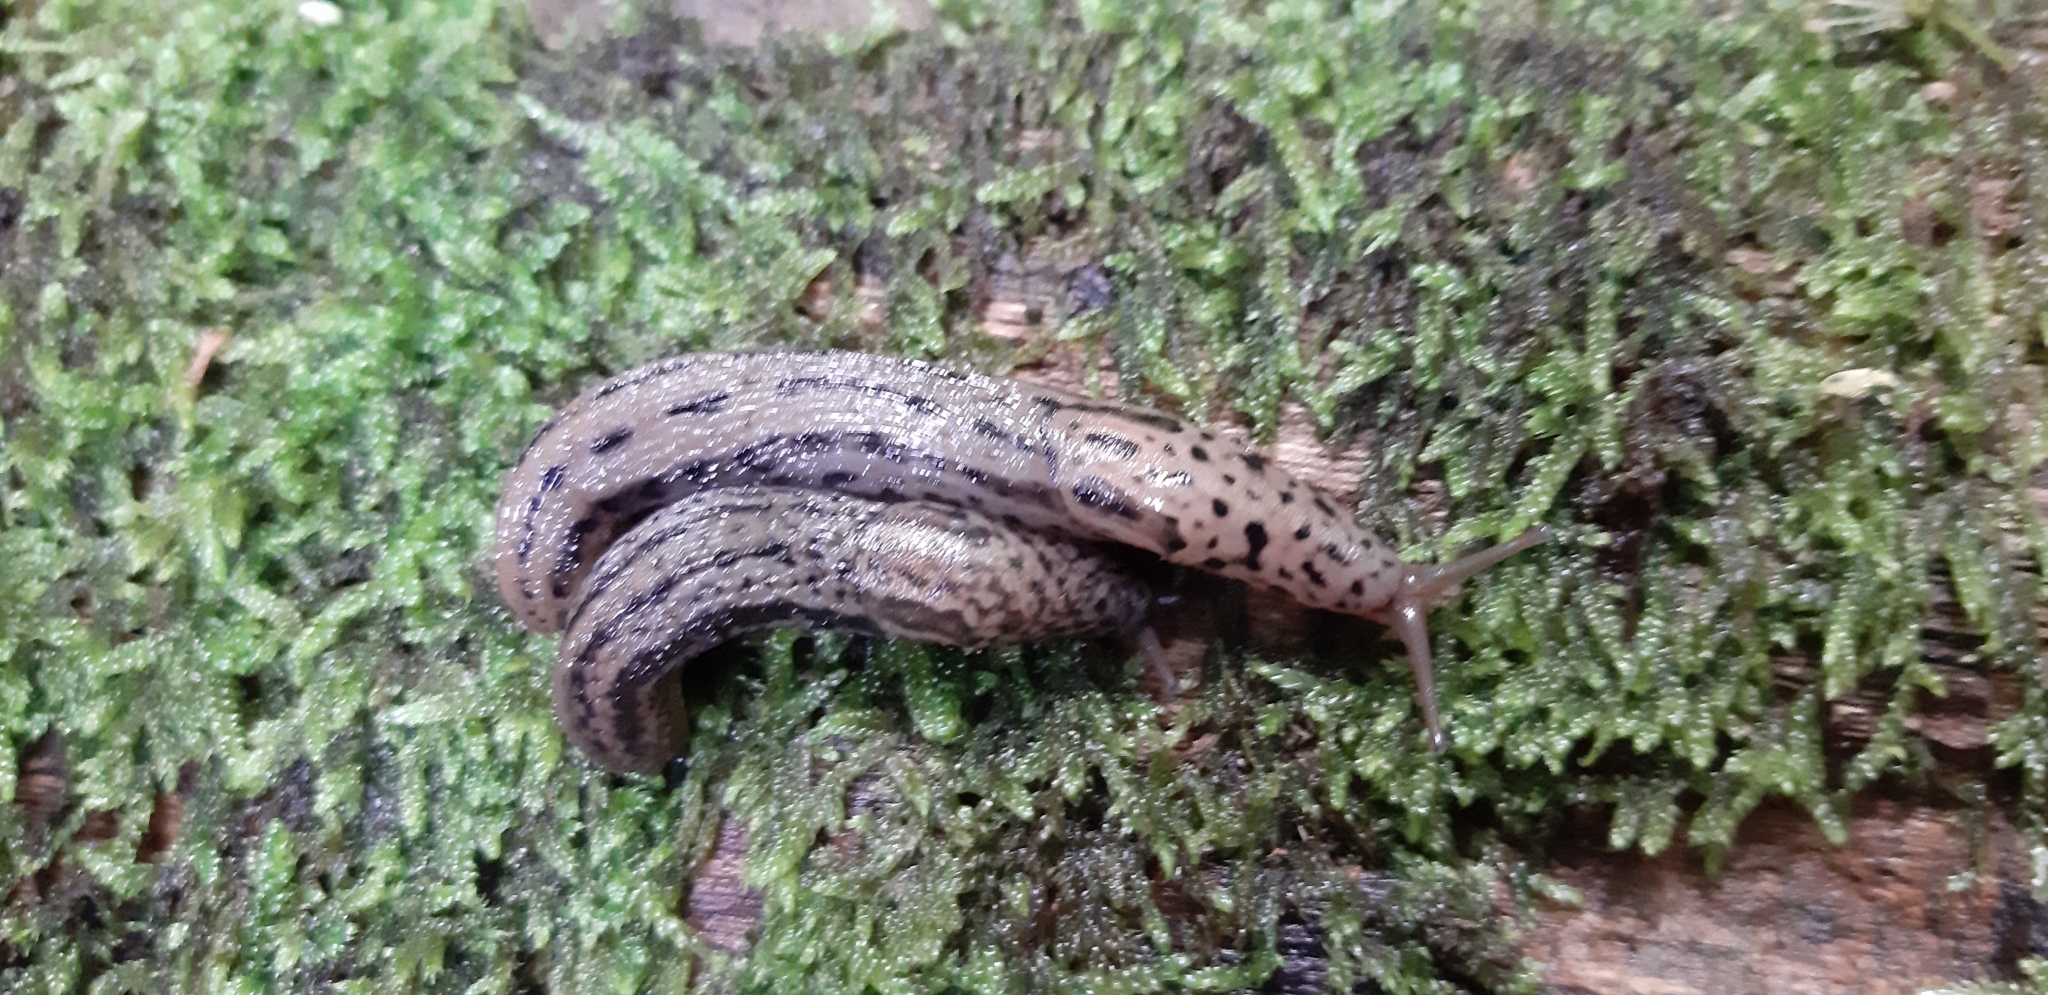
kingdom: Animalia
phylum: Mollusca
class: Gastropoda
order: Stylommatophora
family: Limacidae
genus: Limax
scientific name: Limax maximus
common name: Great grey slug
